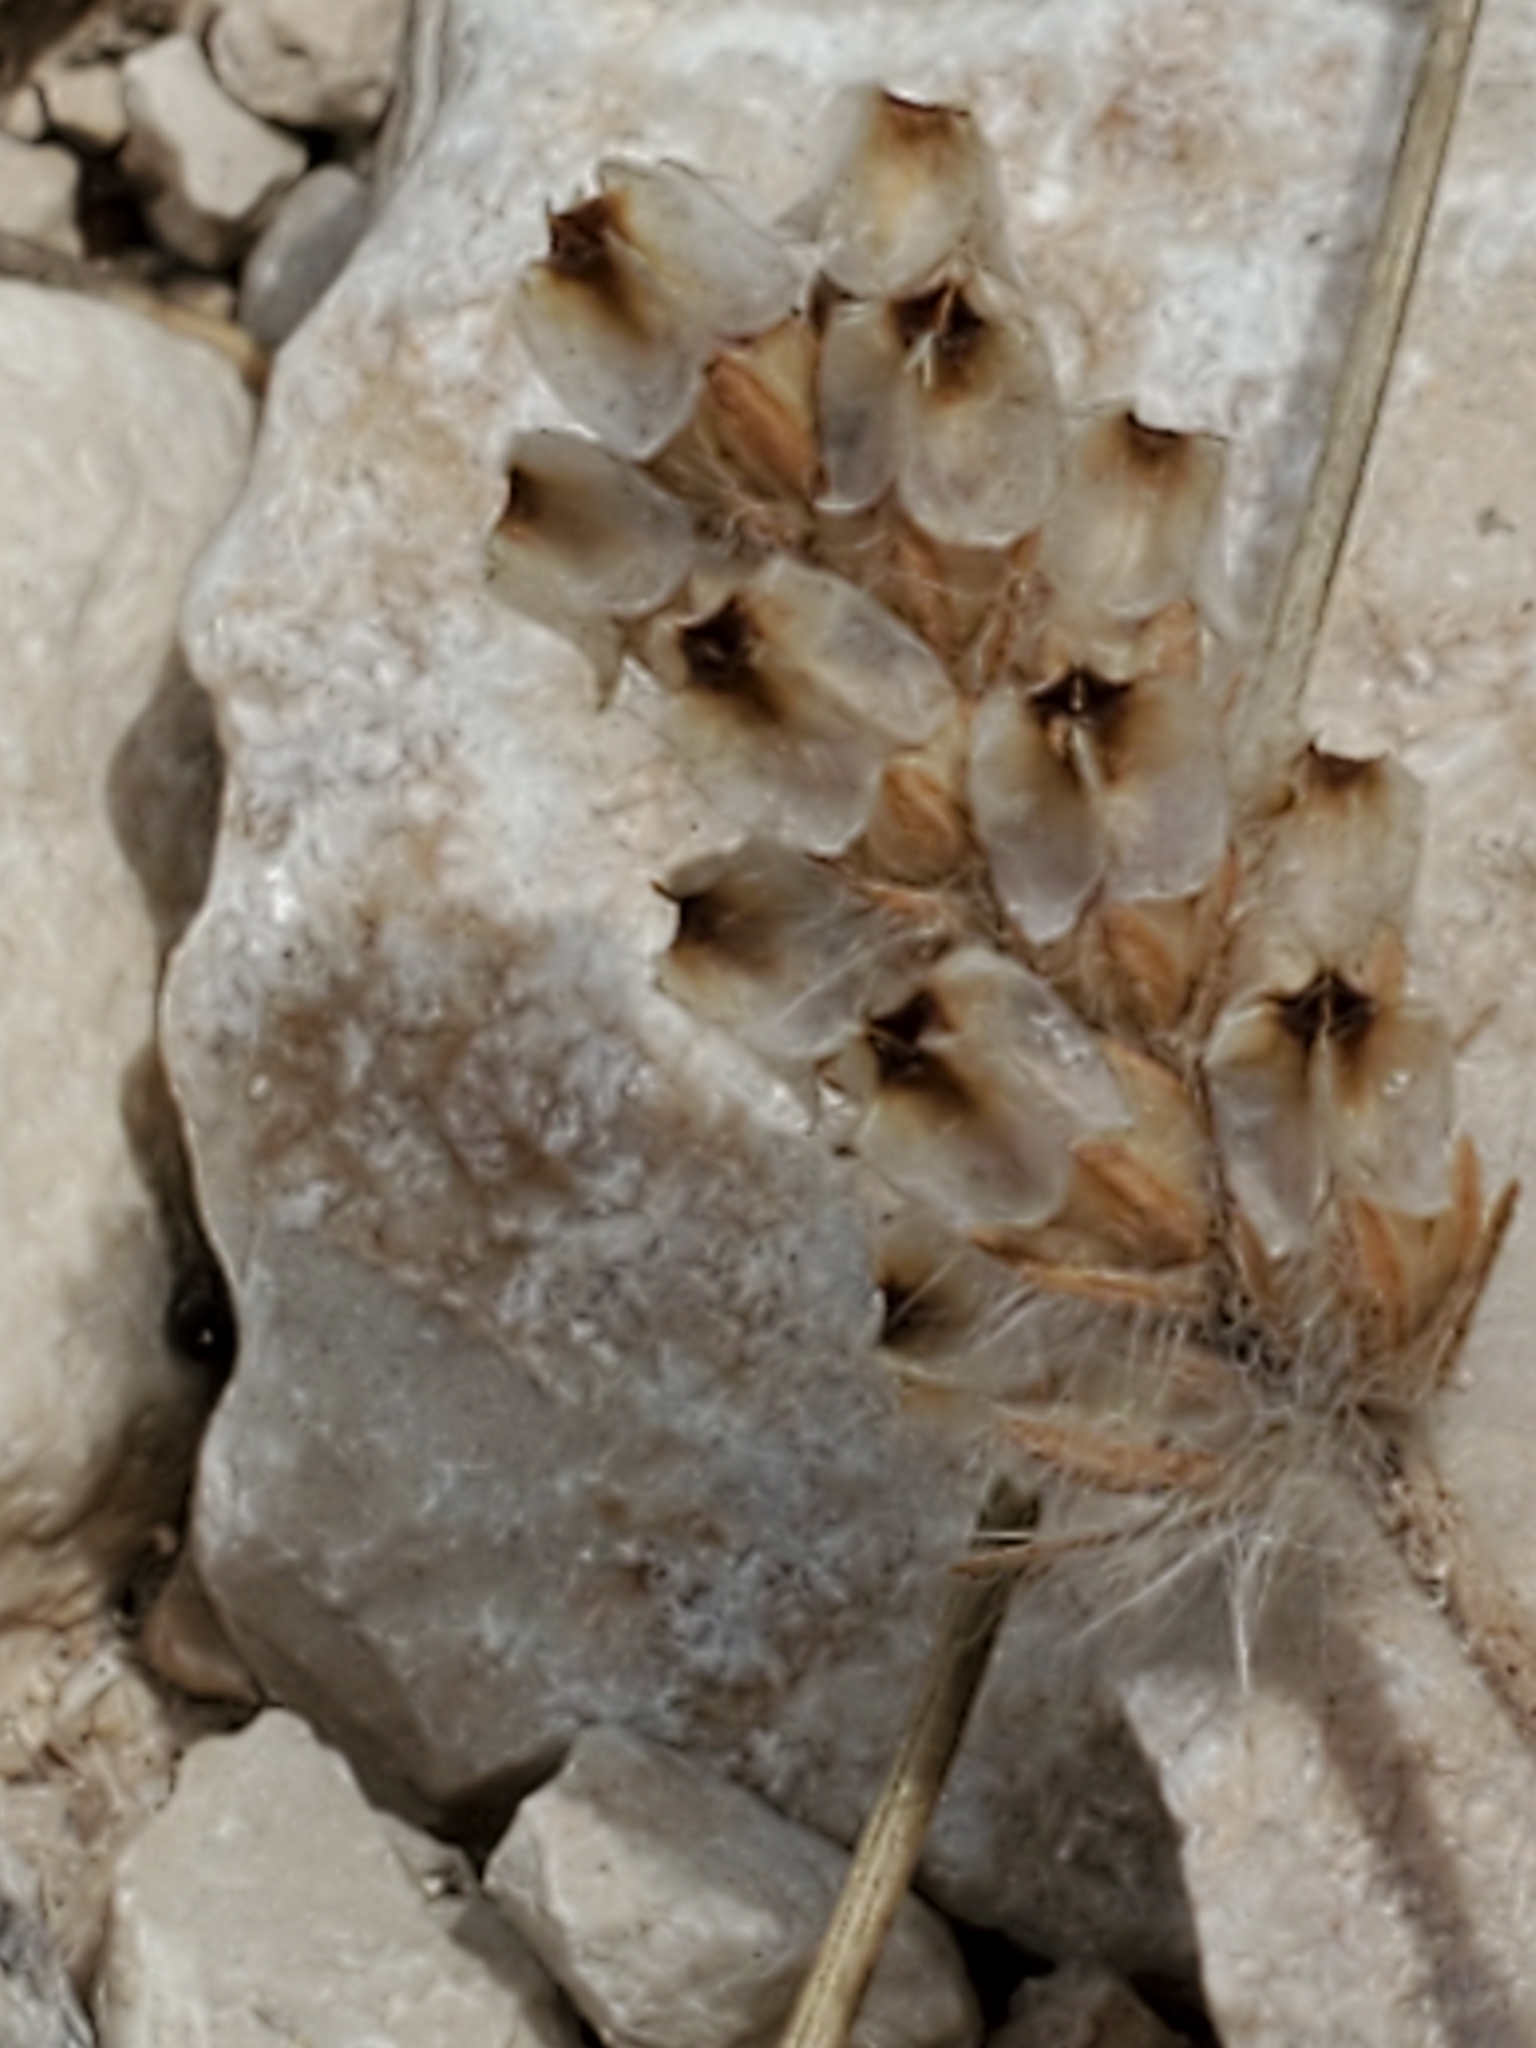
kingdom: Plantae
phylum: Tracheophyta
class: Magnoliopsida
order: Lamiales
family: Plantaginaceae
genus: Plantago
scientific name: Plantago helleri
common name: Heller's plantain
